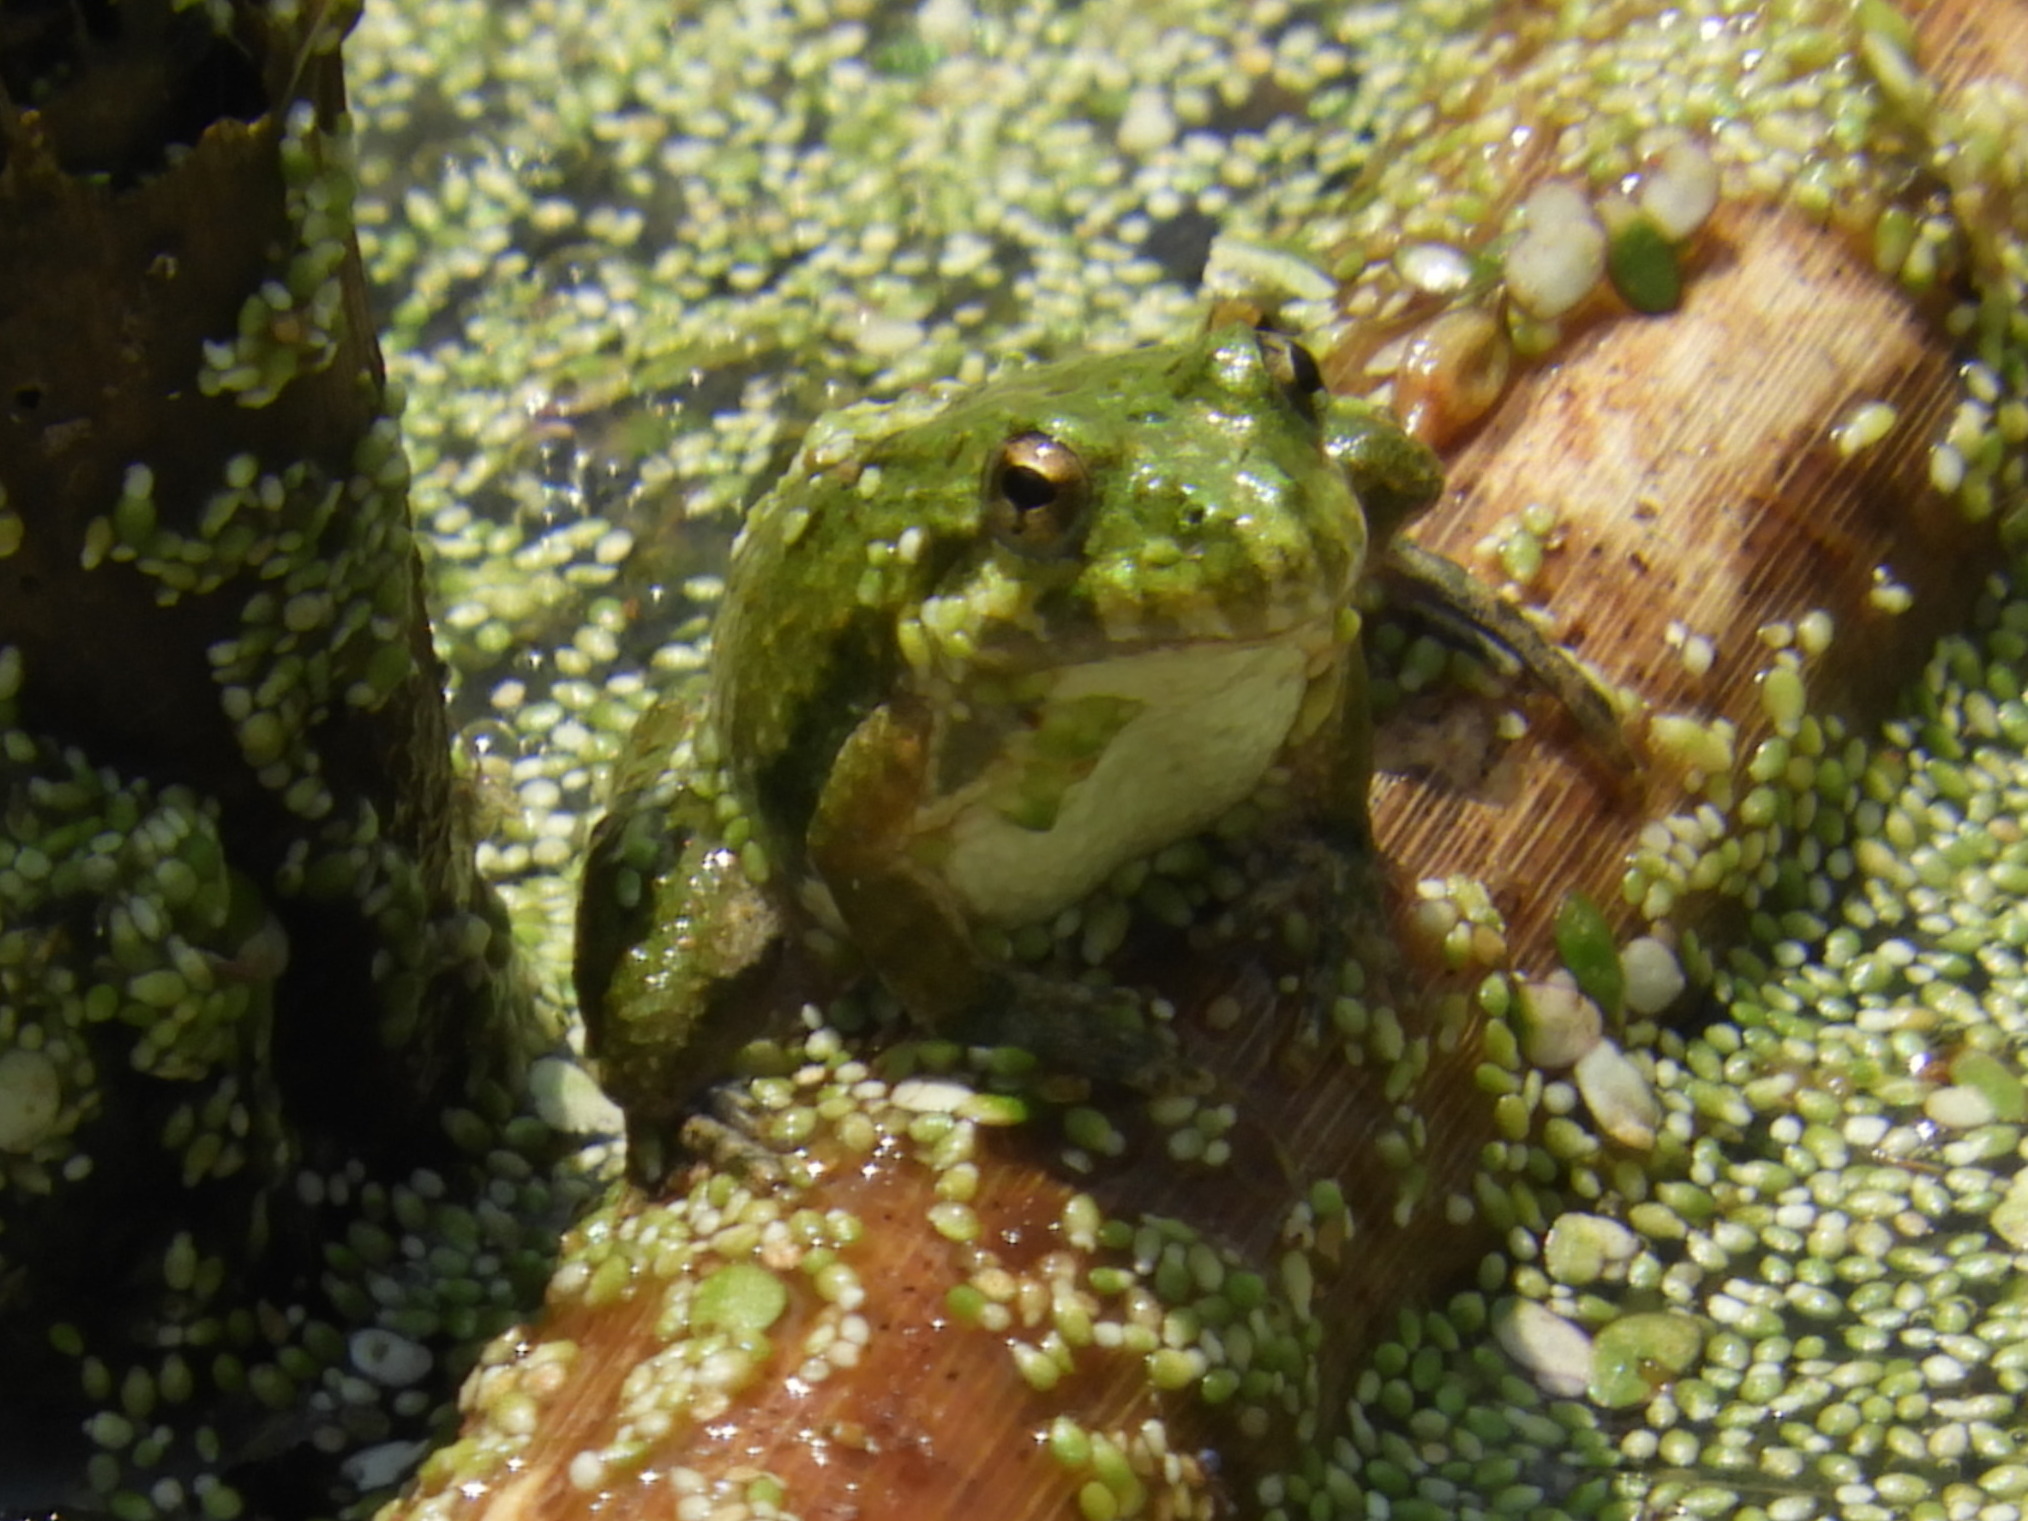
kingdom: Animalia
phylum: Chordata
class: Amphibia
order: Anura
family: Hylidae
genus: Acris
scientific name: Acris crepitans
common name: Northern cricket frog
